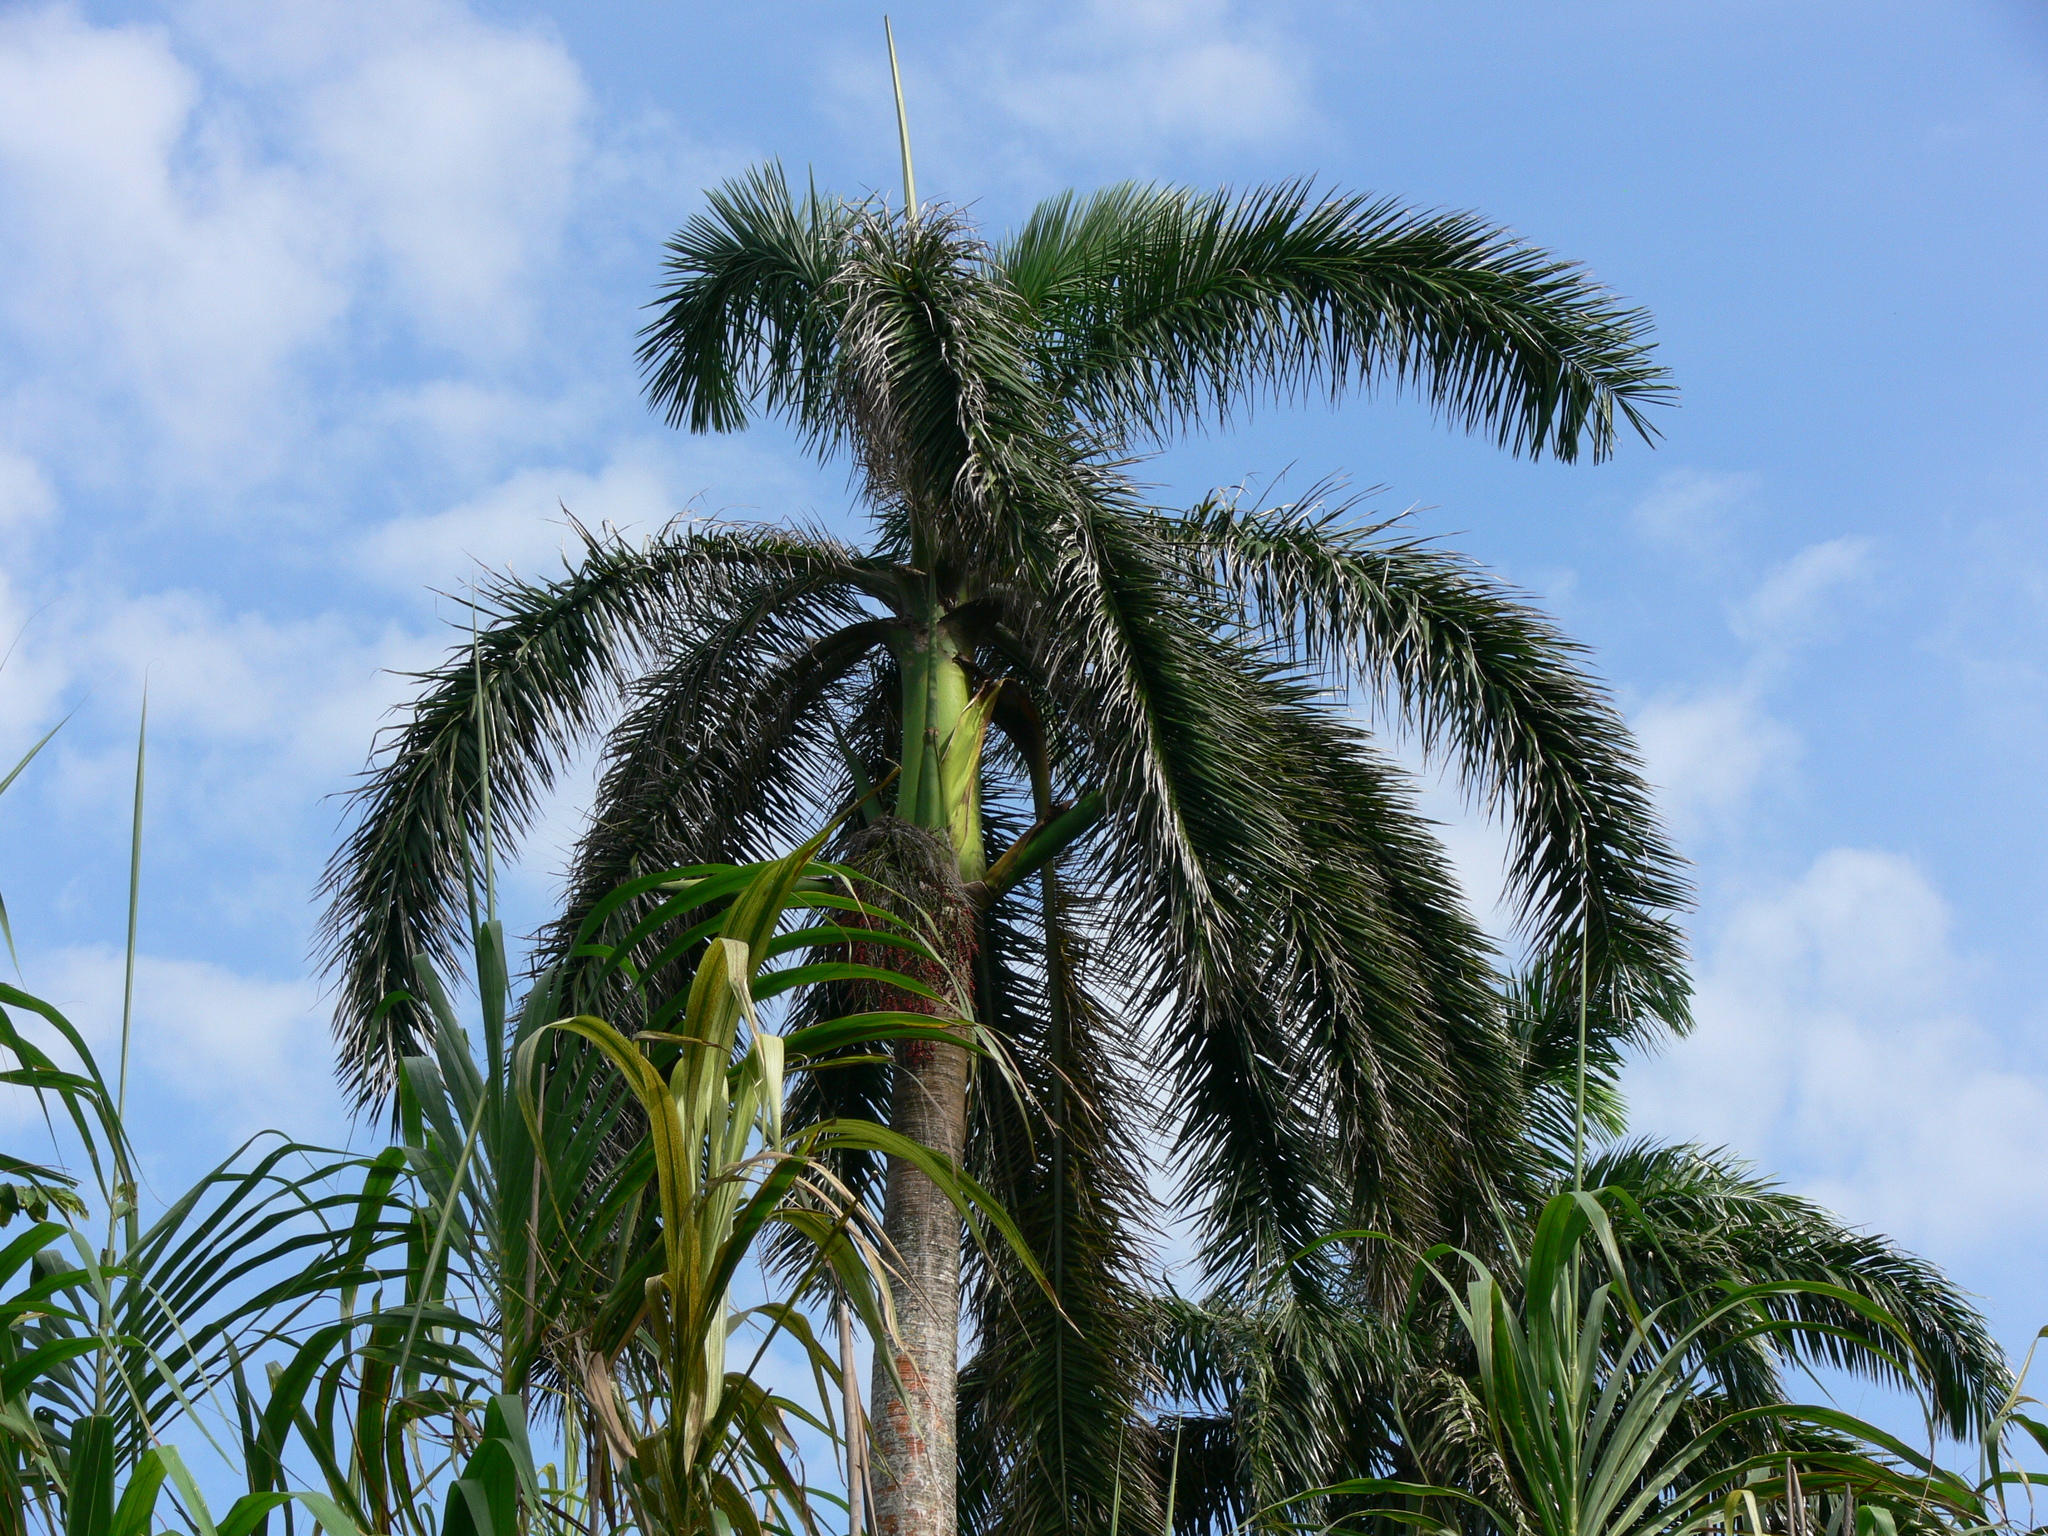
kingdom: Plantae
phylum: Tracheophyta
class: Liliopsida
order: Arecales
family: Arecaceae
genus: Roystonea
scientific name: Roystonea regia
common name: Florida royal palm
